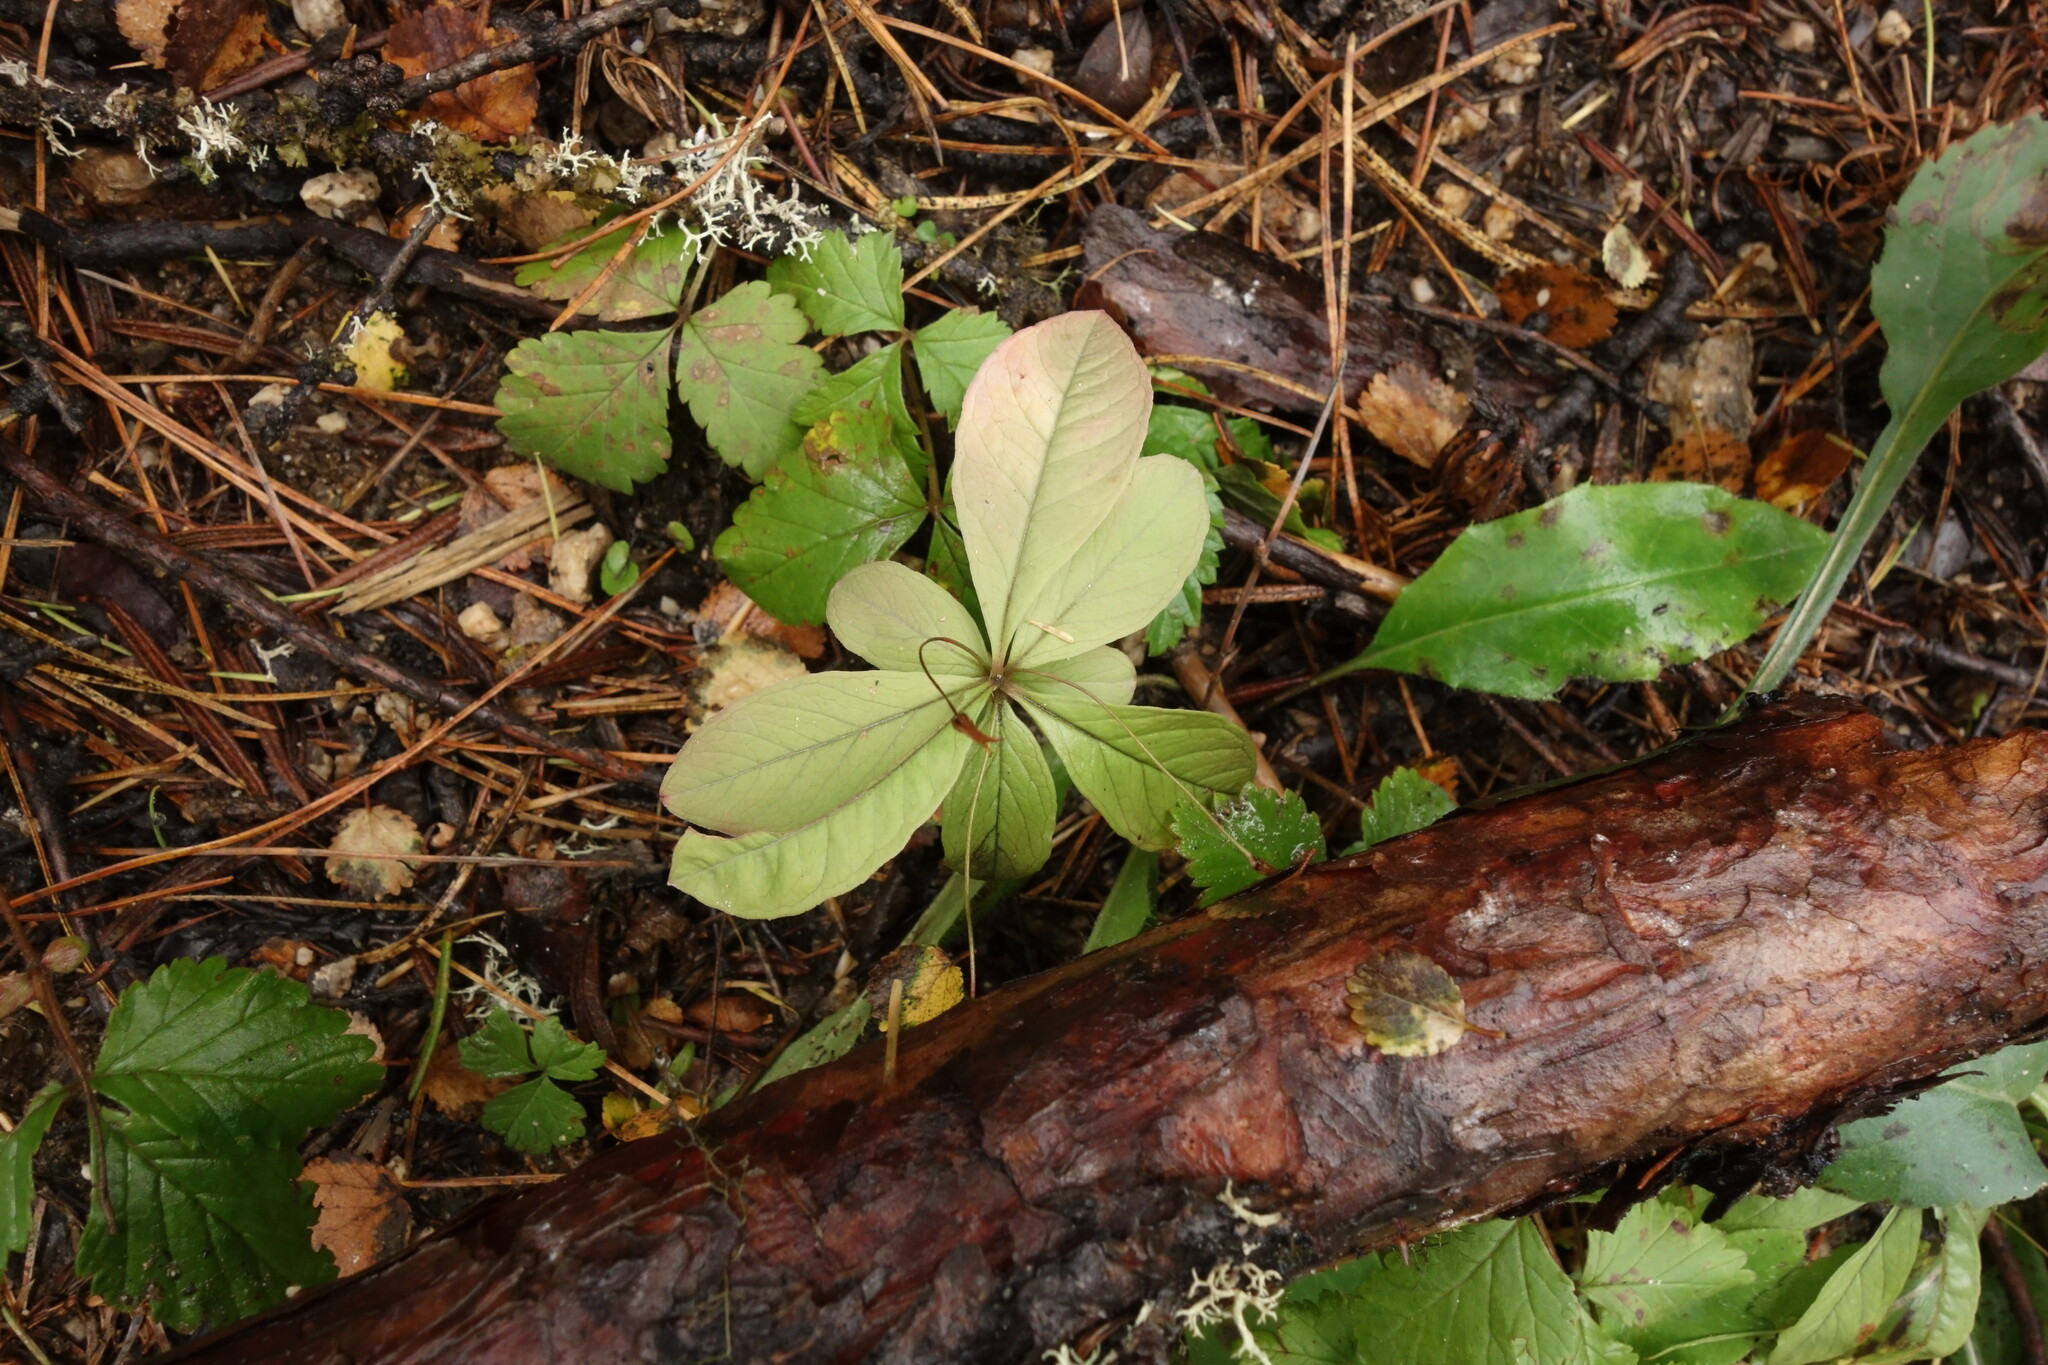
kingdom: Plantae
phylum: Tracheophyta
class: Magnoliopsida
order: Ericales
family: Primulaceae
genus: Lysimachia
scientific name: Lysimachia europaea
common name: Arctic starflower
